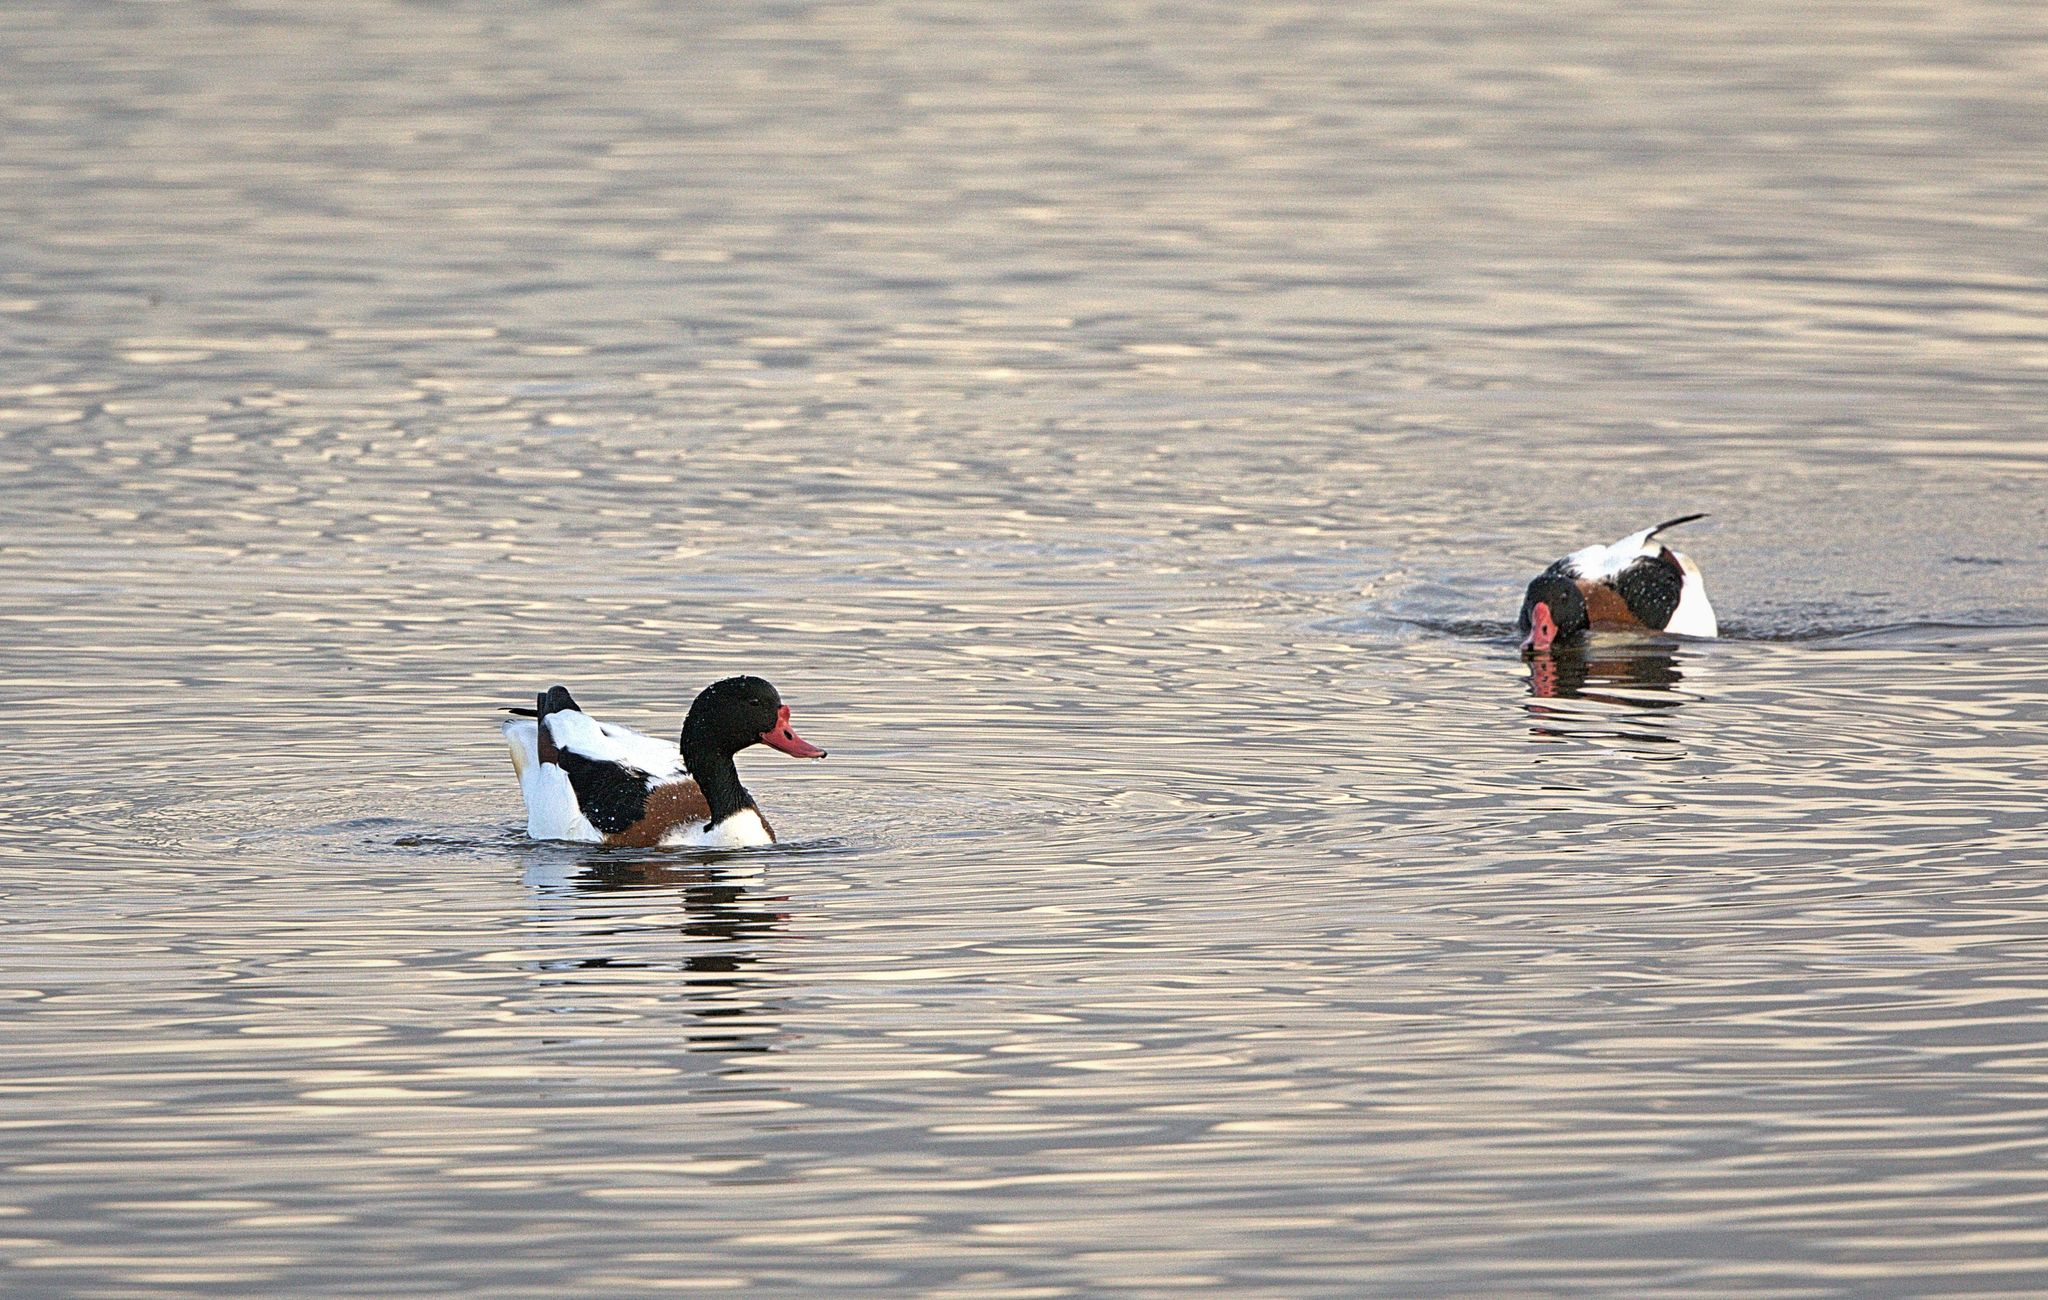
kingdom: Animalia
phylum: Chordata
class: Aves
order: Anseriformes
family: Anatidae
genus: Tadorna
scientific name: Tadorna tadorna
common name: Common shelduck
